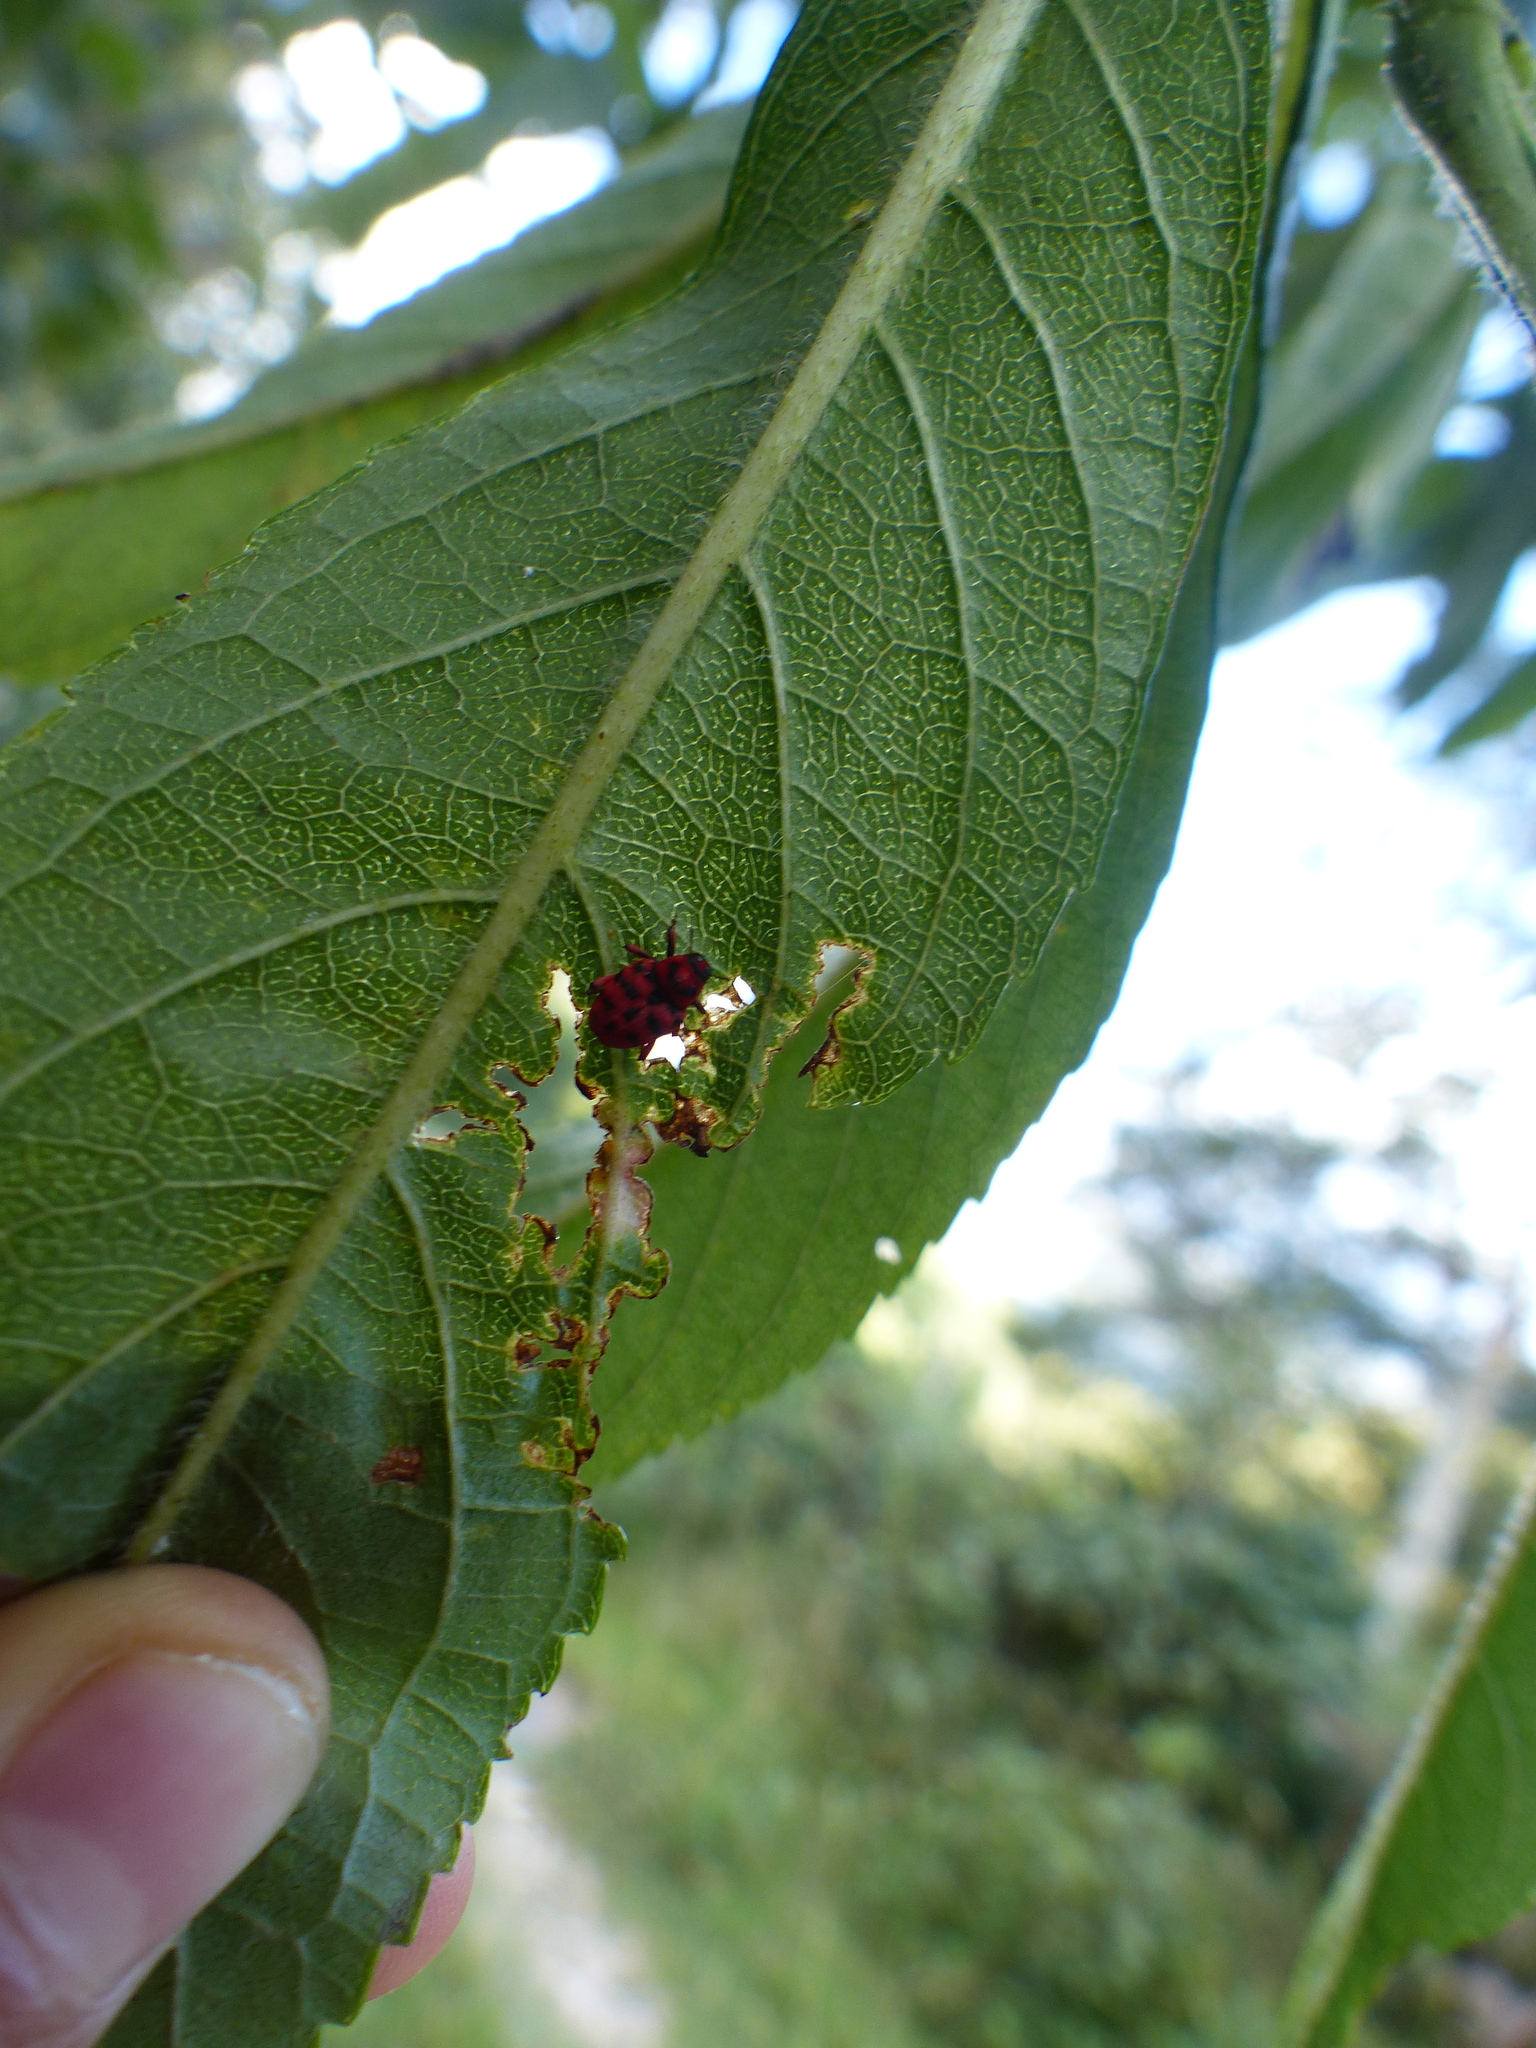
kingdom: Animalia
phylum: Arthropoda
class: Insecta
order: Coleoptera
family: Curculionidae
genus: Poecilogaster
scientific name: Poecilogaster
